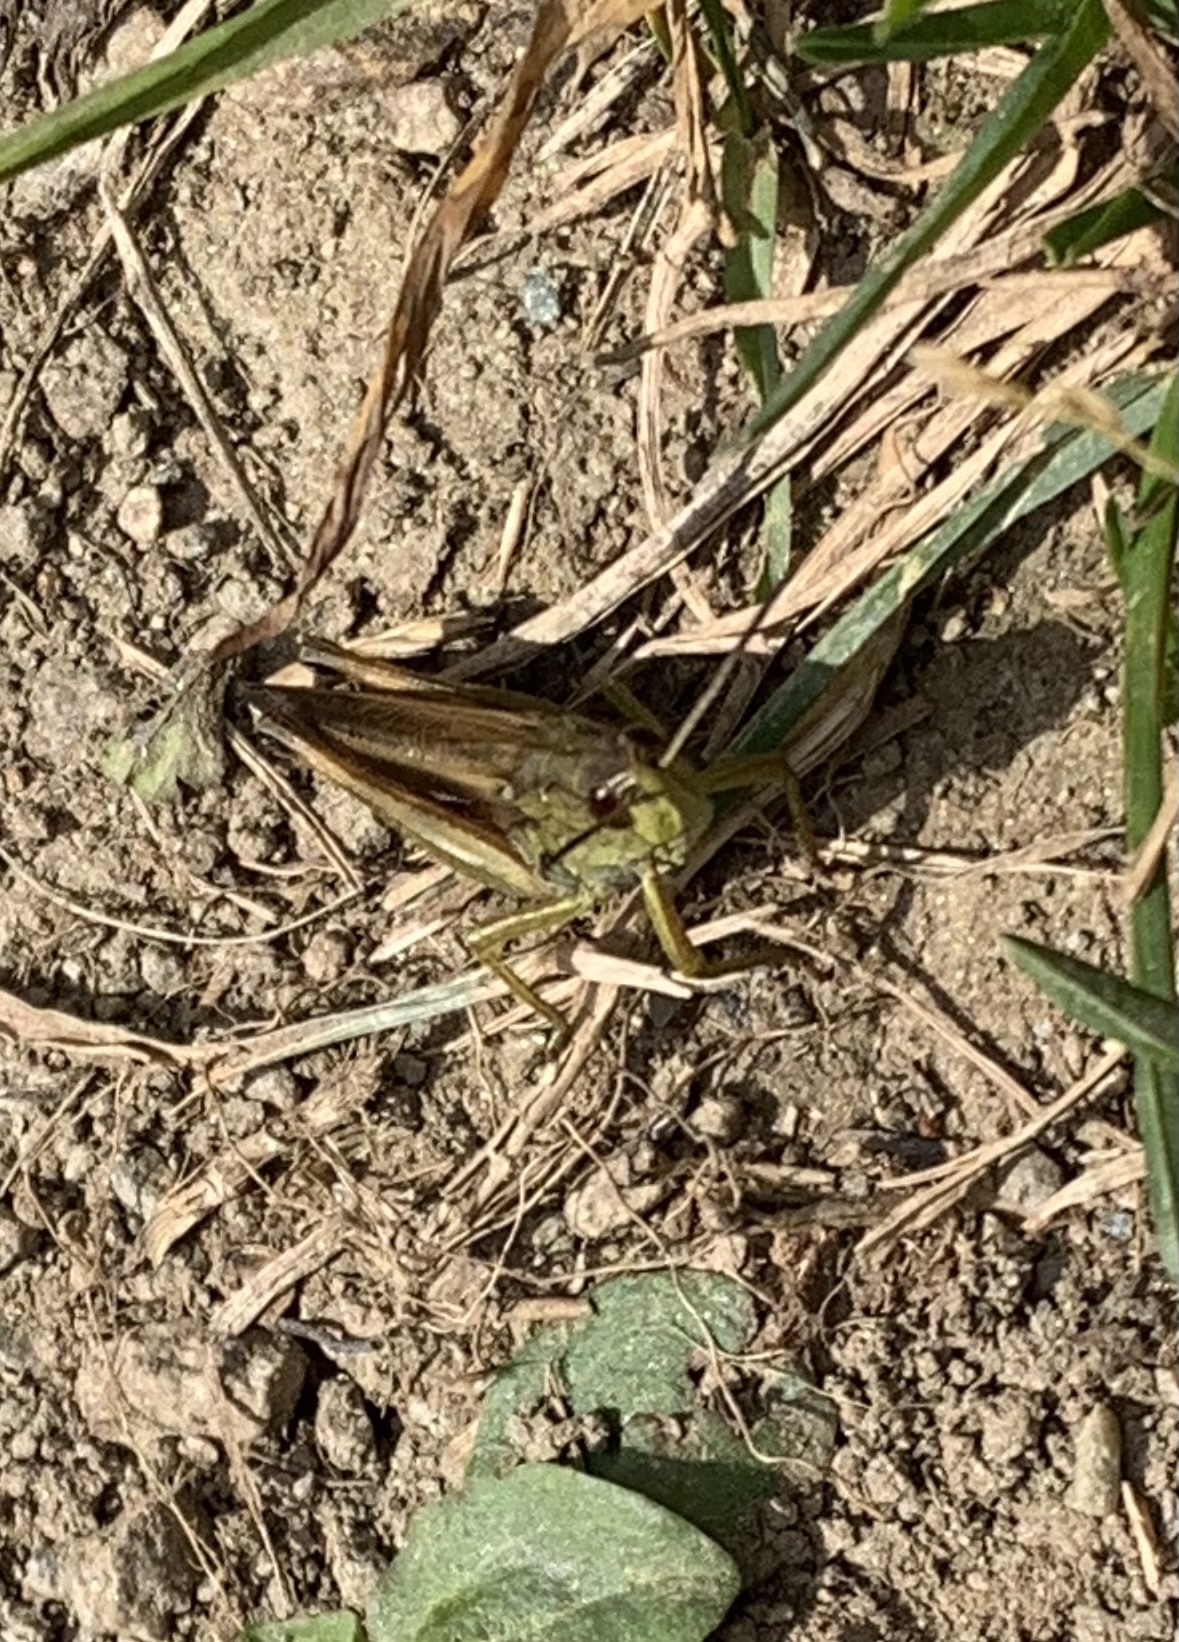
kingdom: Animalia
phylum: Arthropoda
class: Insecta
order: Orthoptera
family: Acrididae
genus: Stauroderus
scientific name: Stauroderus scalaris
